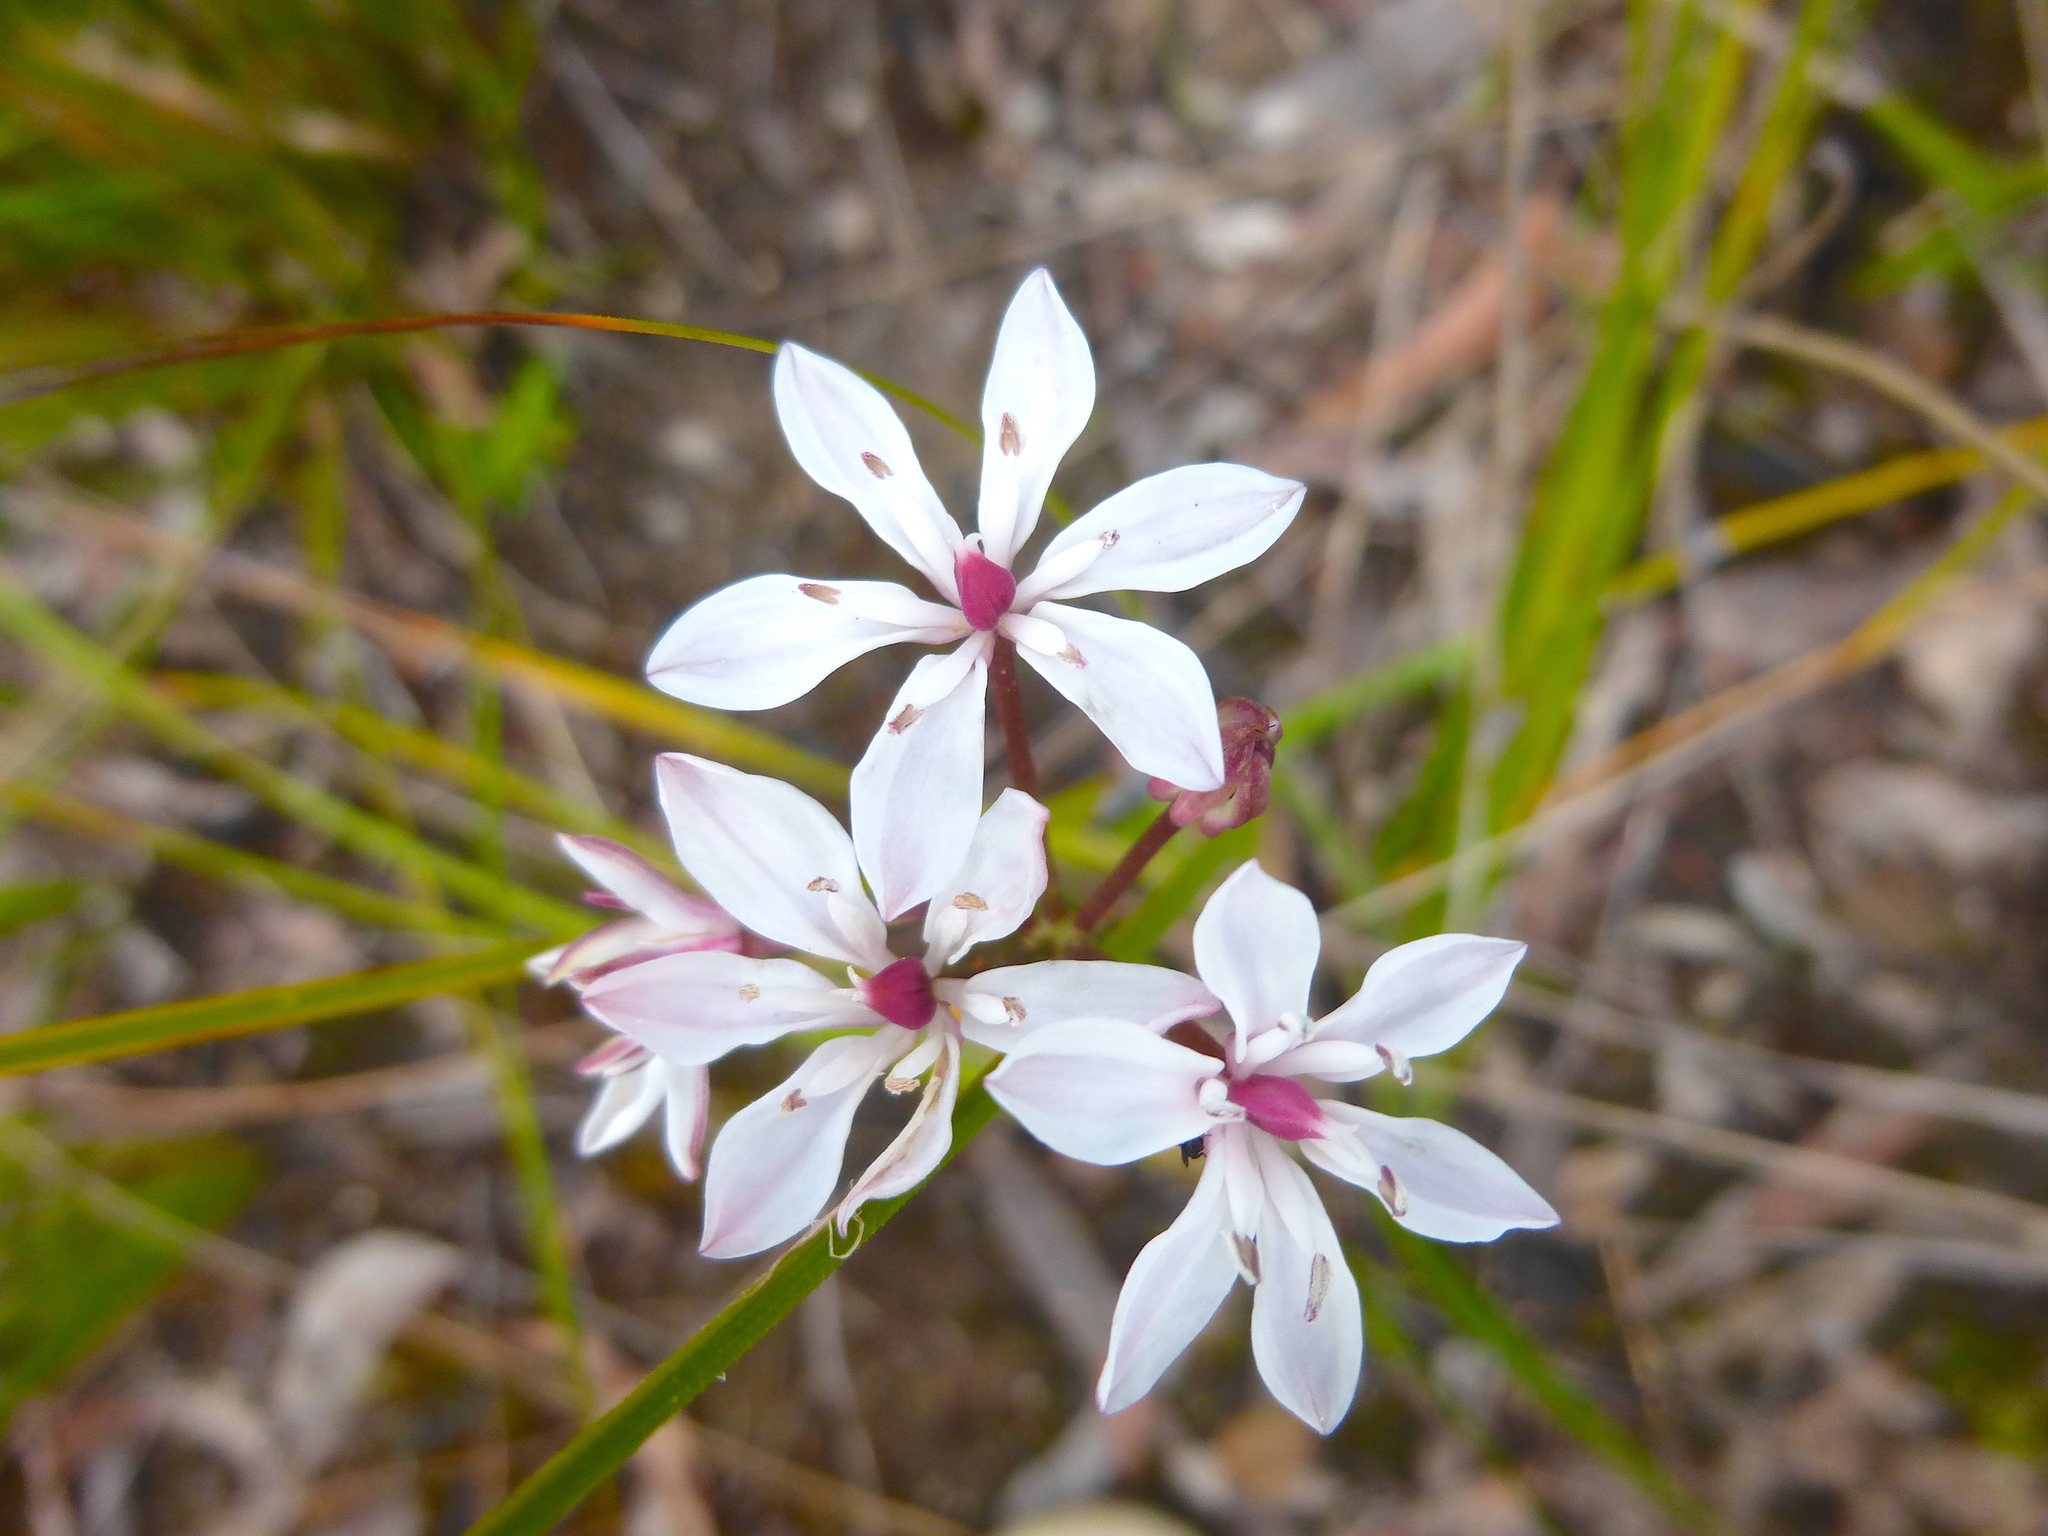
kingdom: Plantae
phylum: Tracheophyta
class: Liliopsida
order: Liliales
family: Colchicaceae
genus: Burchardia
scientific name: Burchardia umbellata
